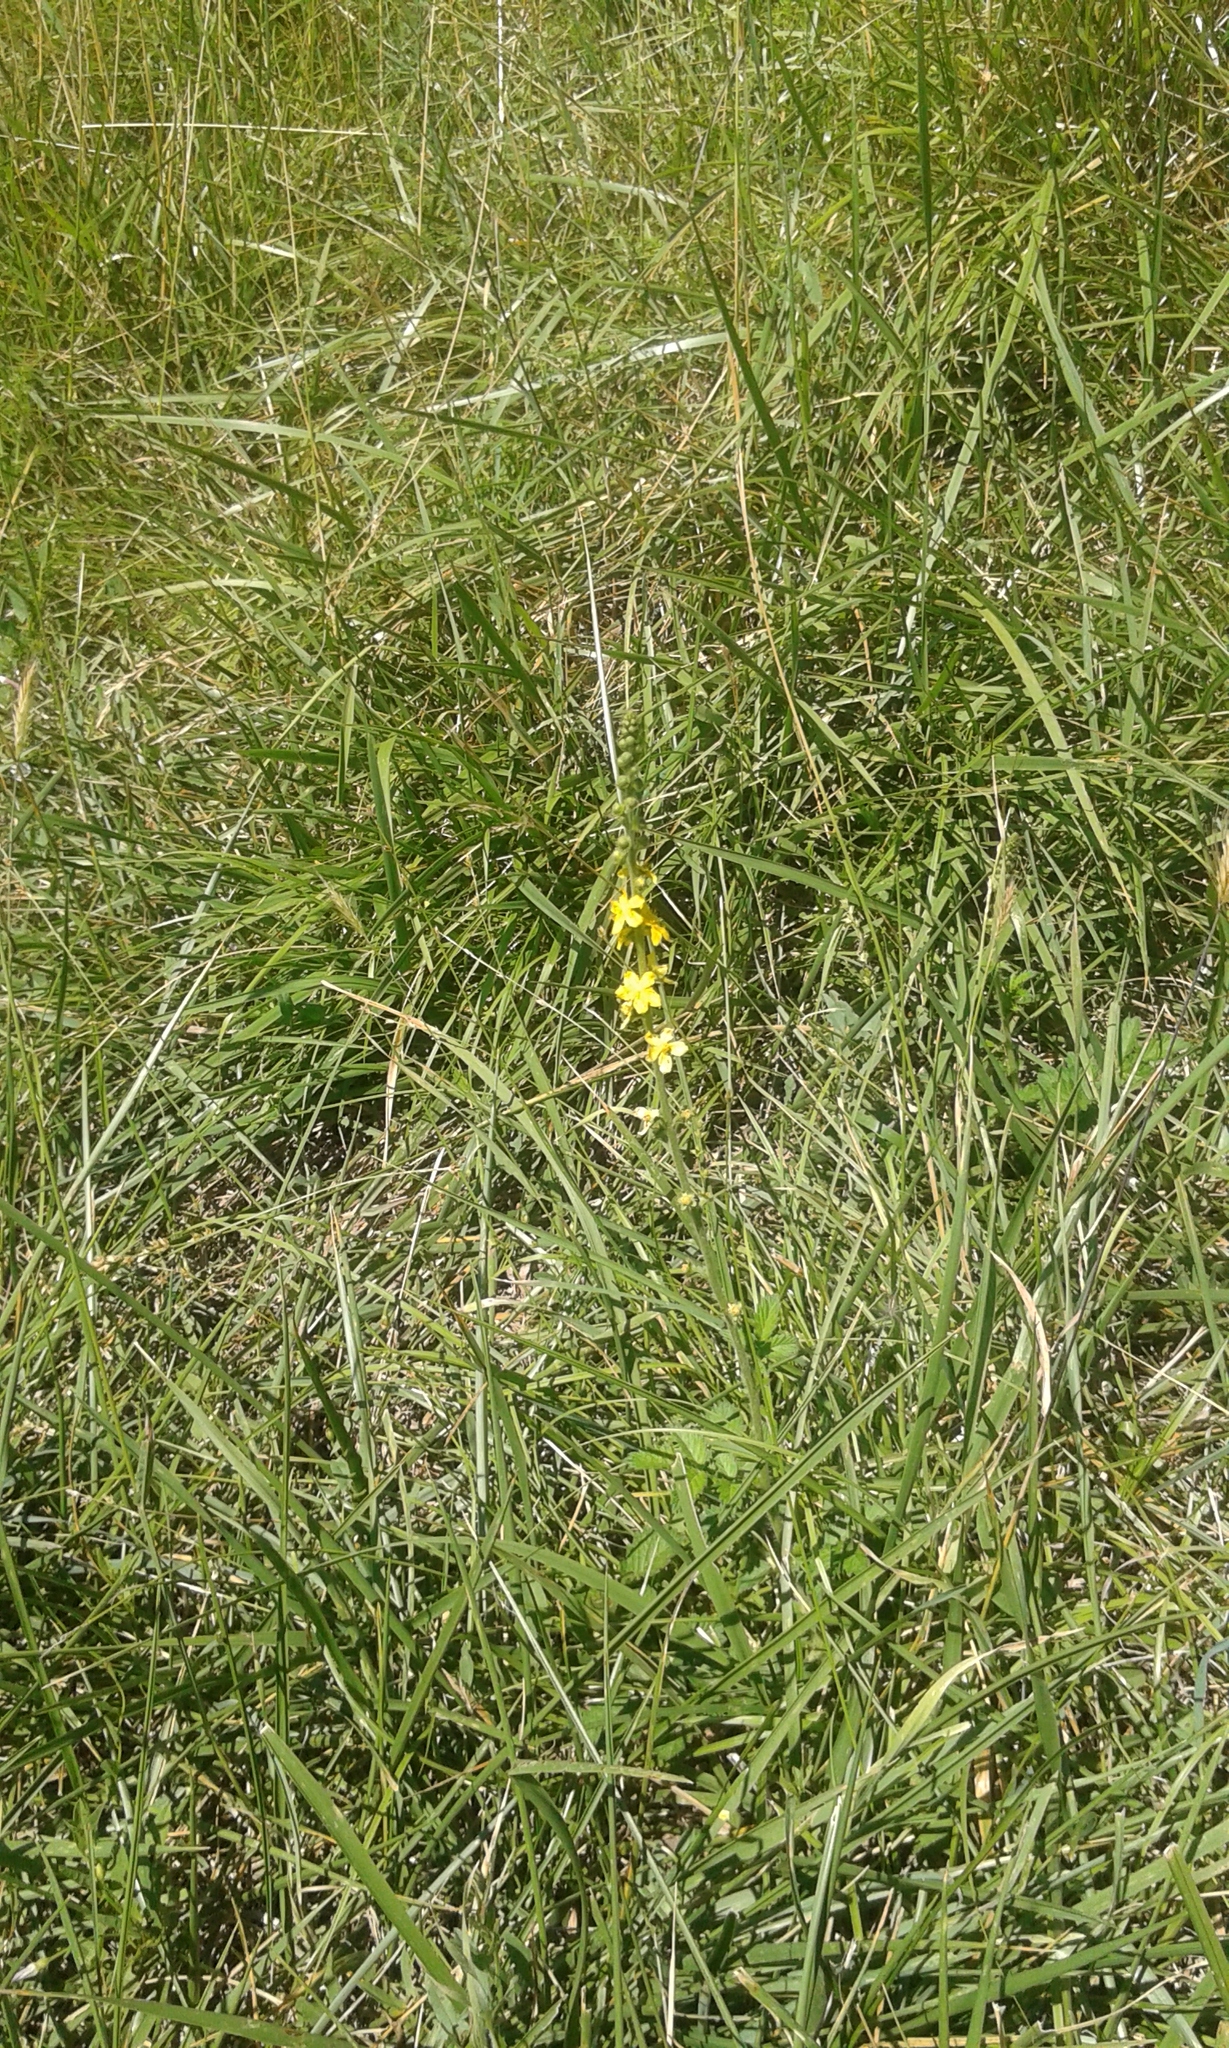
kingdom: Plantae
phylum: Tracheophyta
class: Magnoliopsida
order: Rosales
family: Rosaceae
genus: Agrimonia
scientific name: Agrimonia eupatoria
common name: Agrimony
